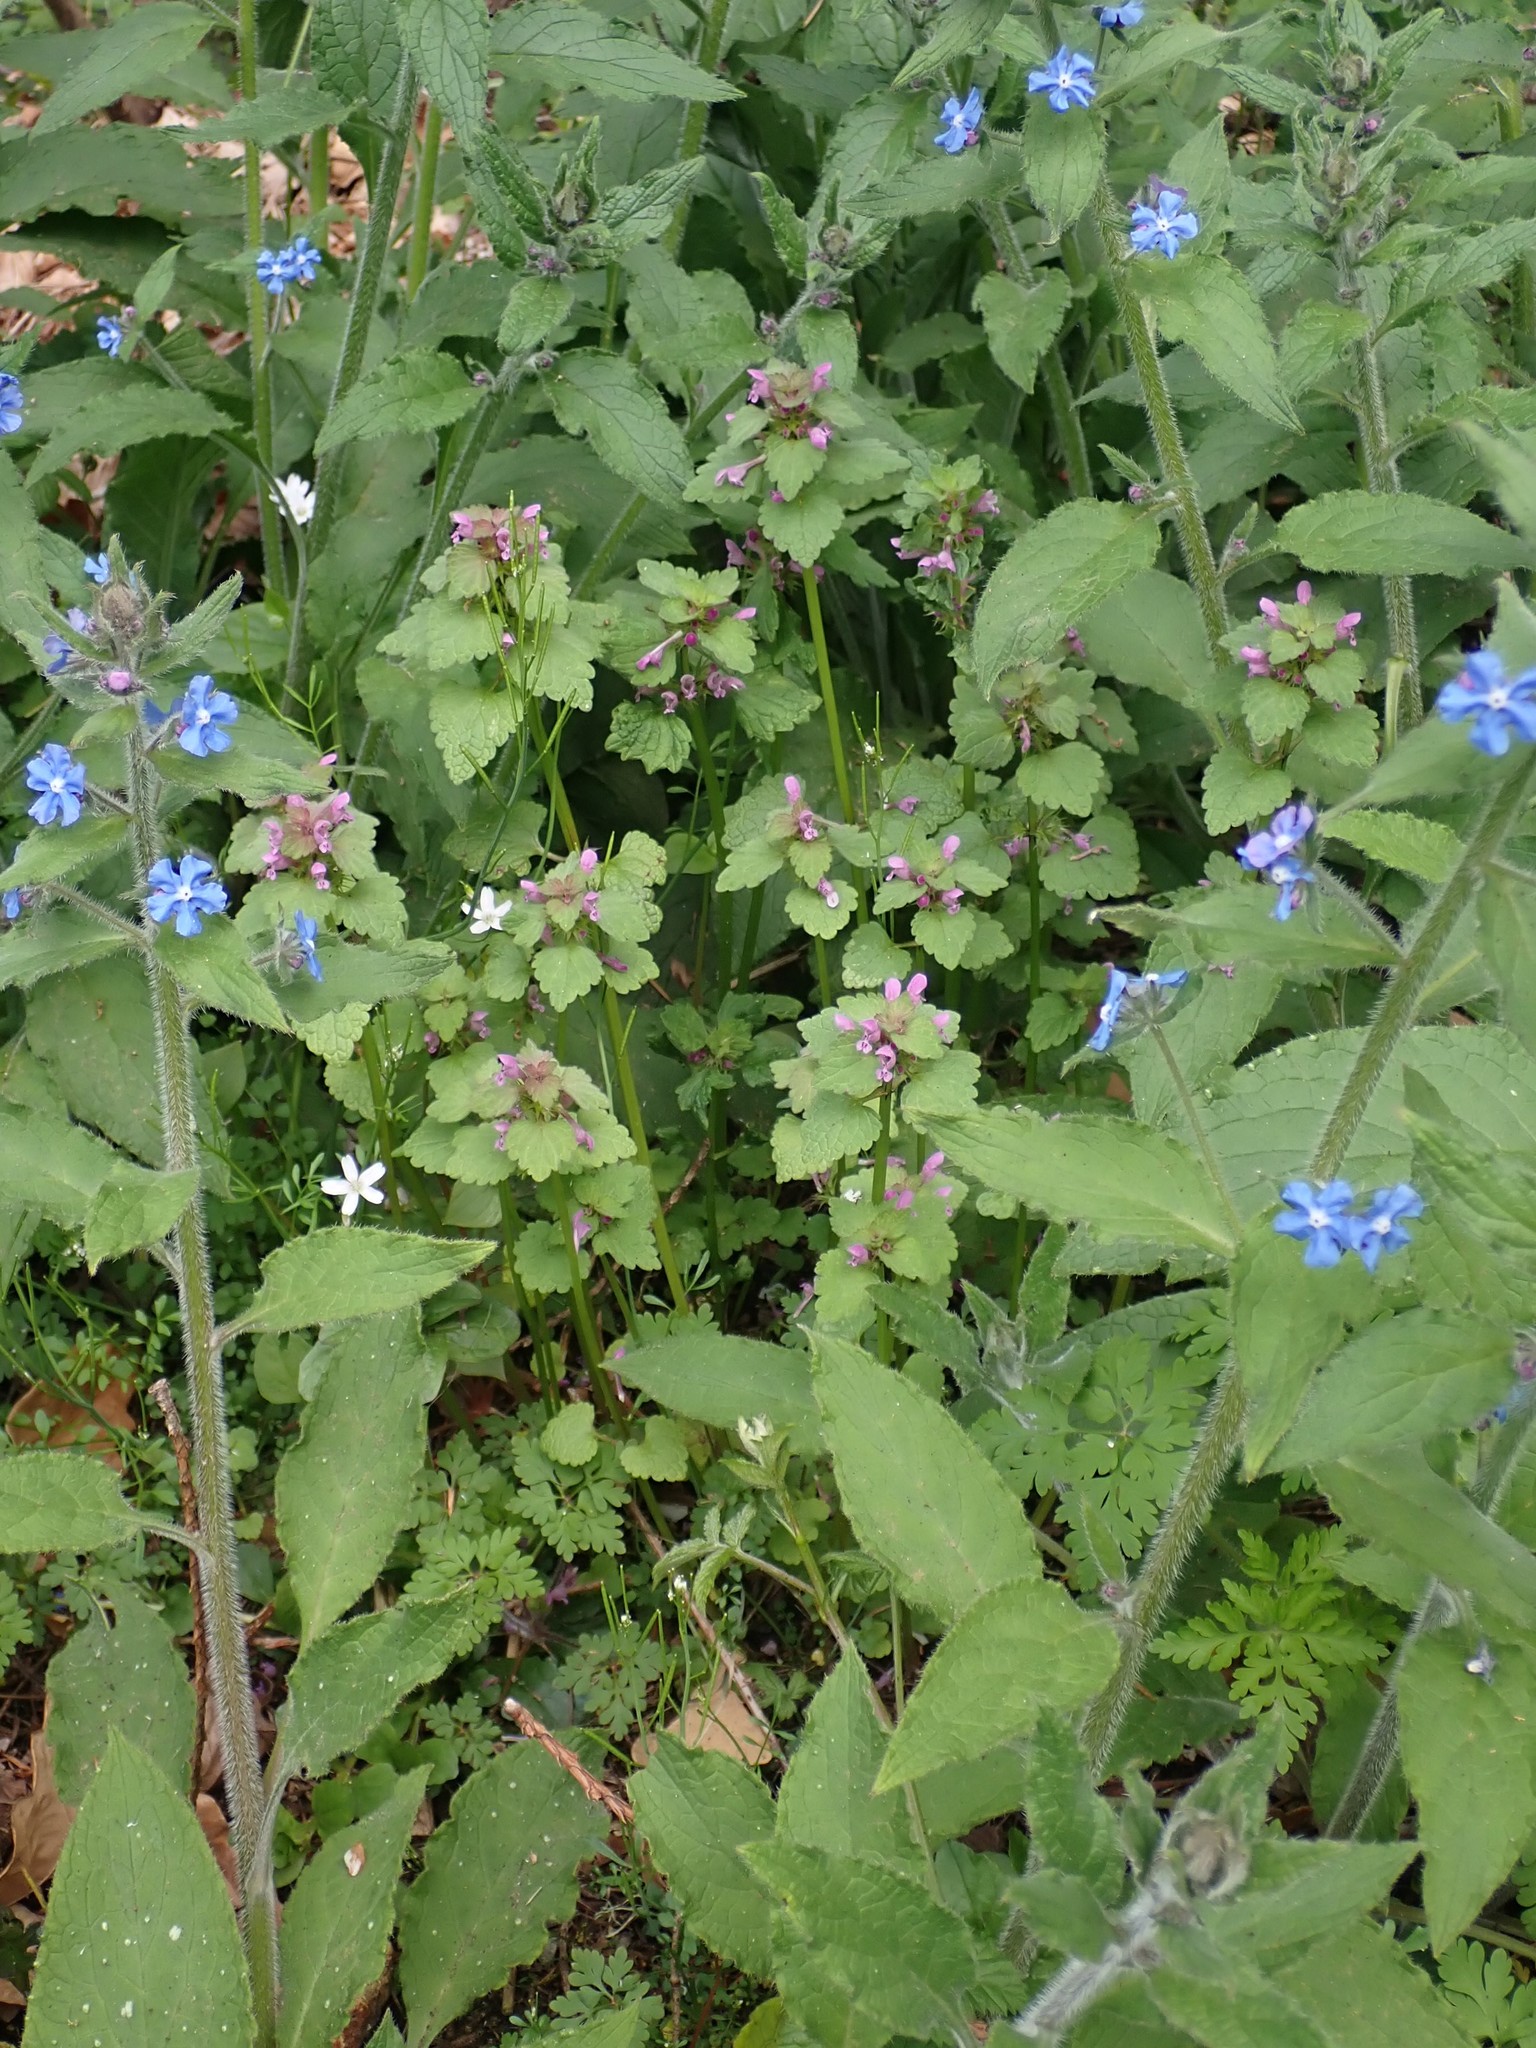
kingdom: Plantae
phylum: Tracheophyta
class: Magnoliopsida
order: Lamiales
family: Lamiaceae
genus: Lamium
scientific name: Lamium purpureum
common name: Red dead-nettle
